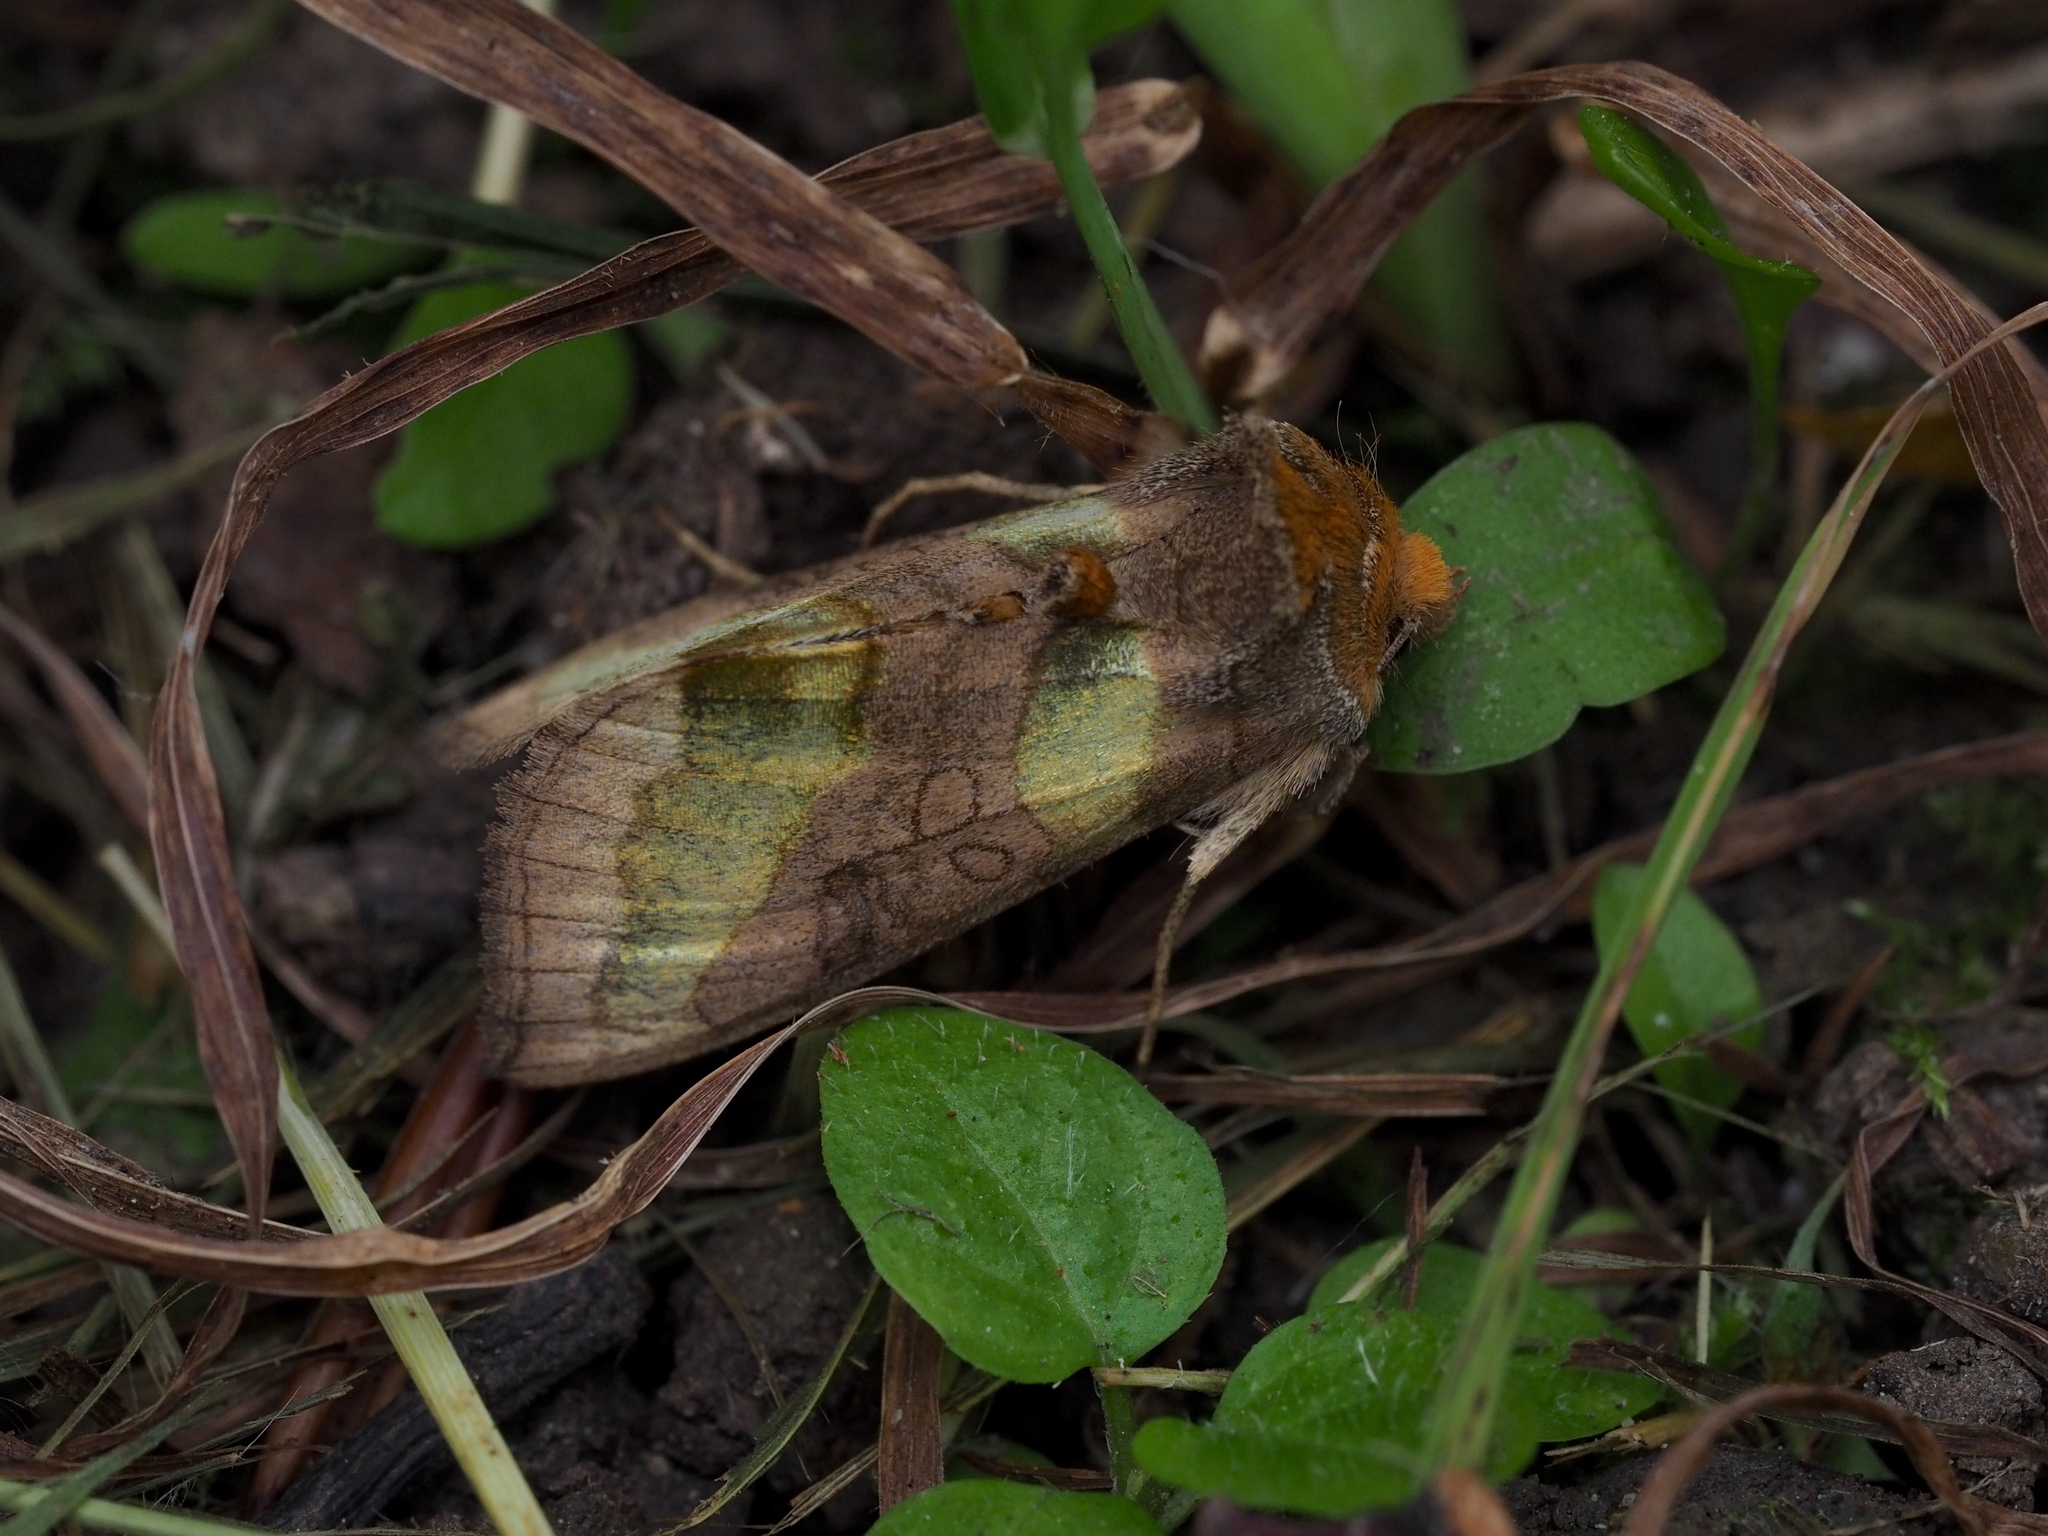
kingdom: Animalia
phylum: Arthropoda
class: Insecta
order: Lepidoptera
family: Noctuidae
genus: Diachrysia
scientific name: Diachrysia chrysitis
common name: Burnished brass
